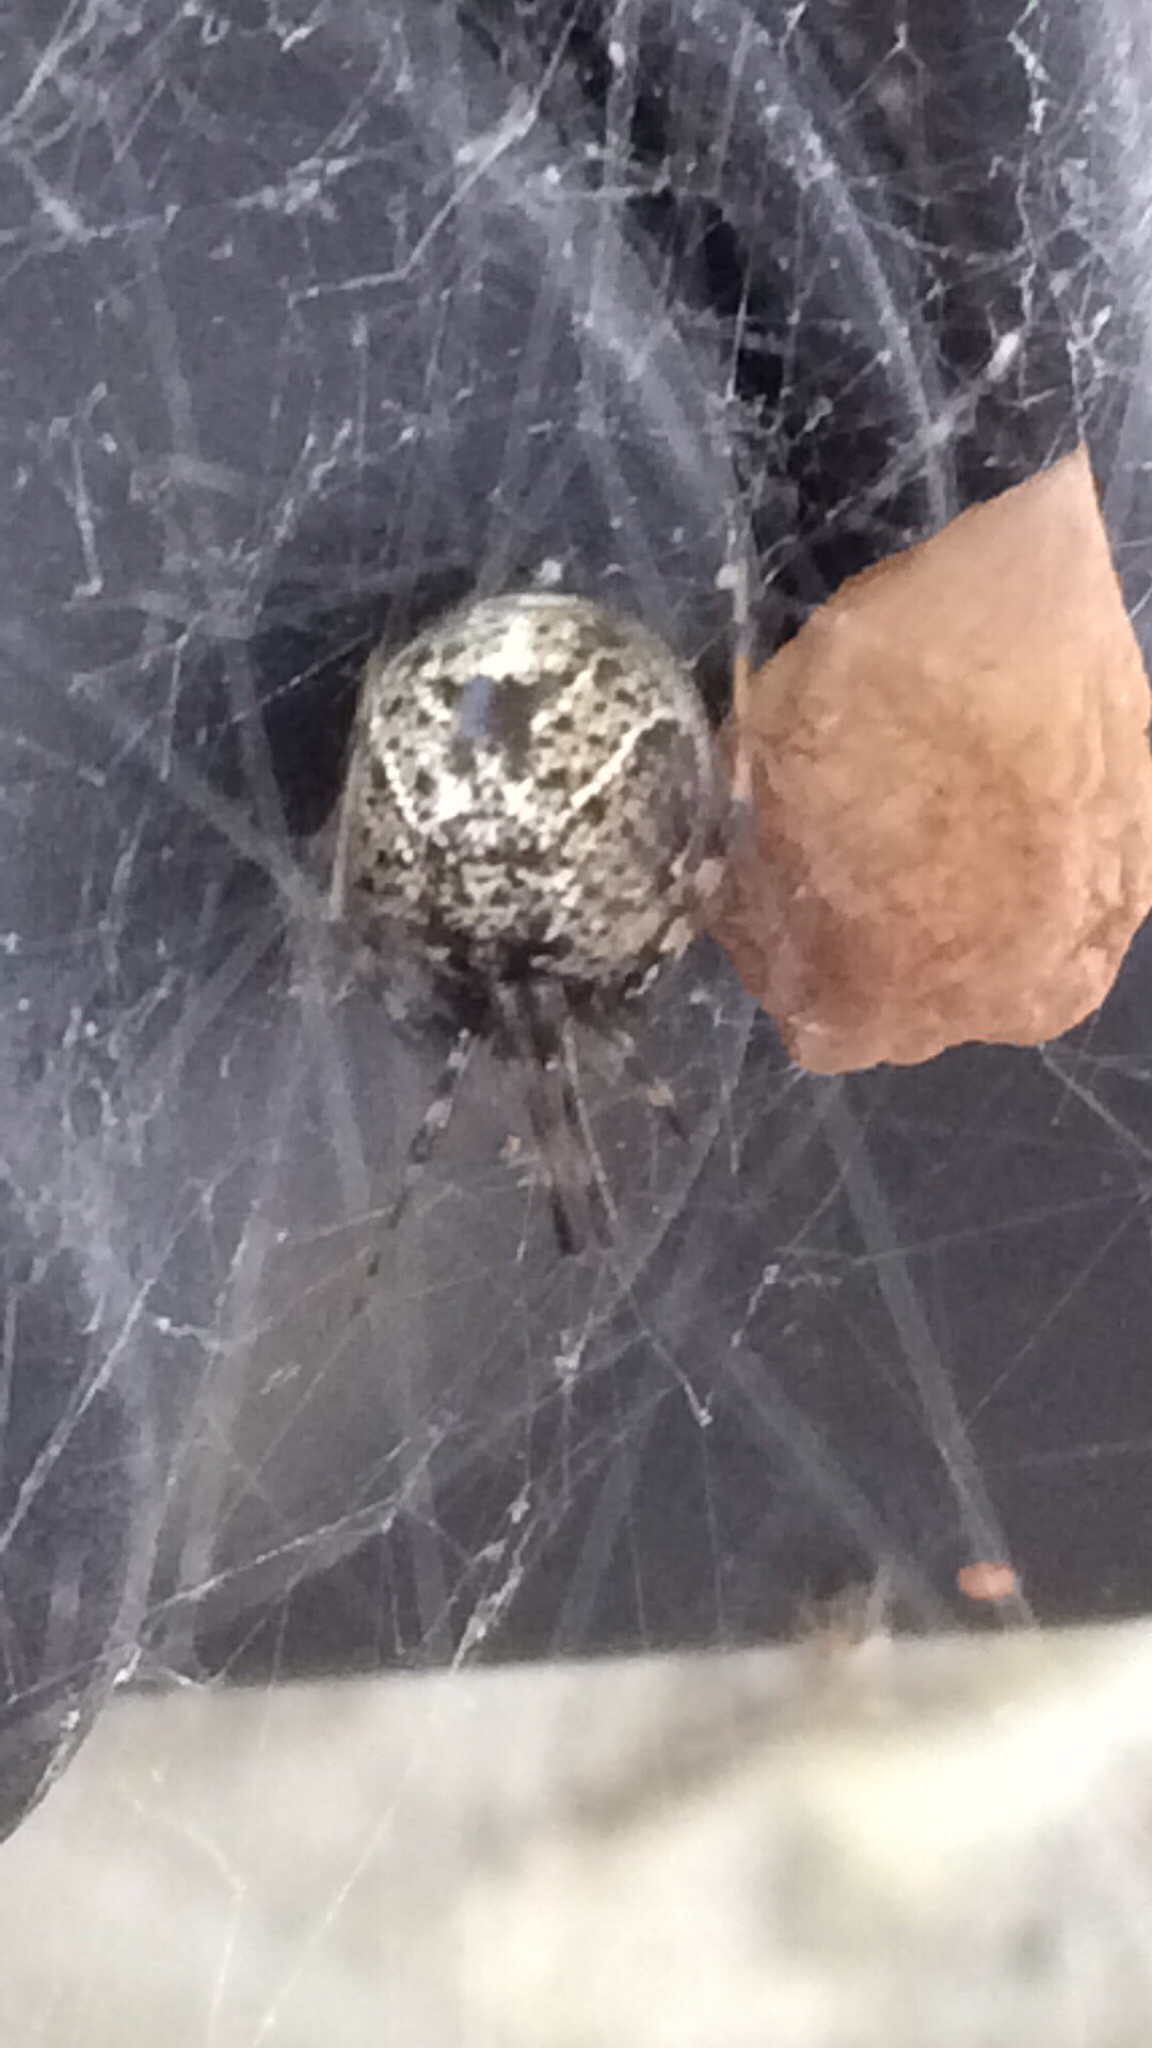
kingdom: Animalia
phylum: Arthropoda
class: Arachnida
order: Araneae
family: Theridiidae
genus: Parasteatoda
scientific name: Parasteatoda tepidariorum
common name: Common house spider
